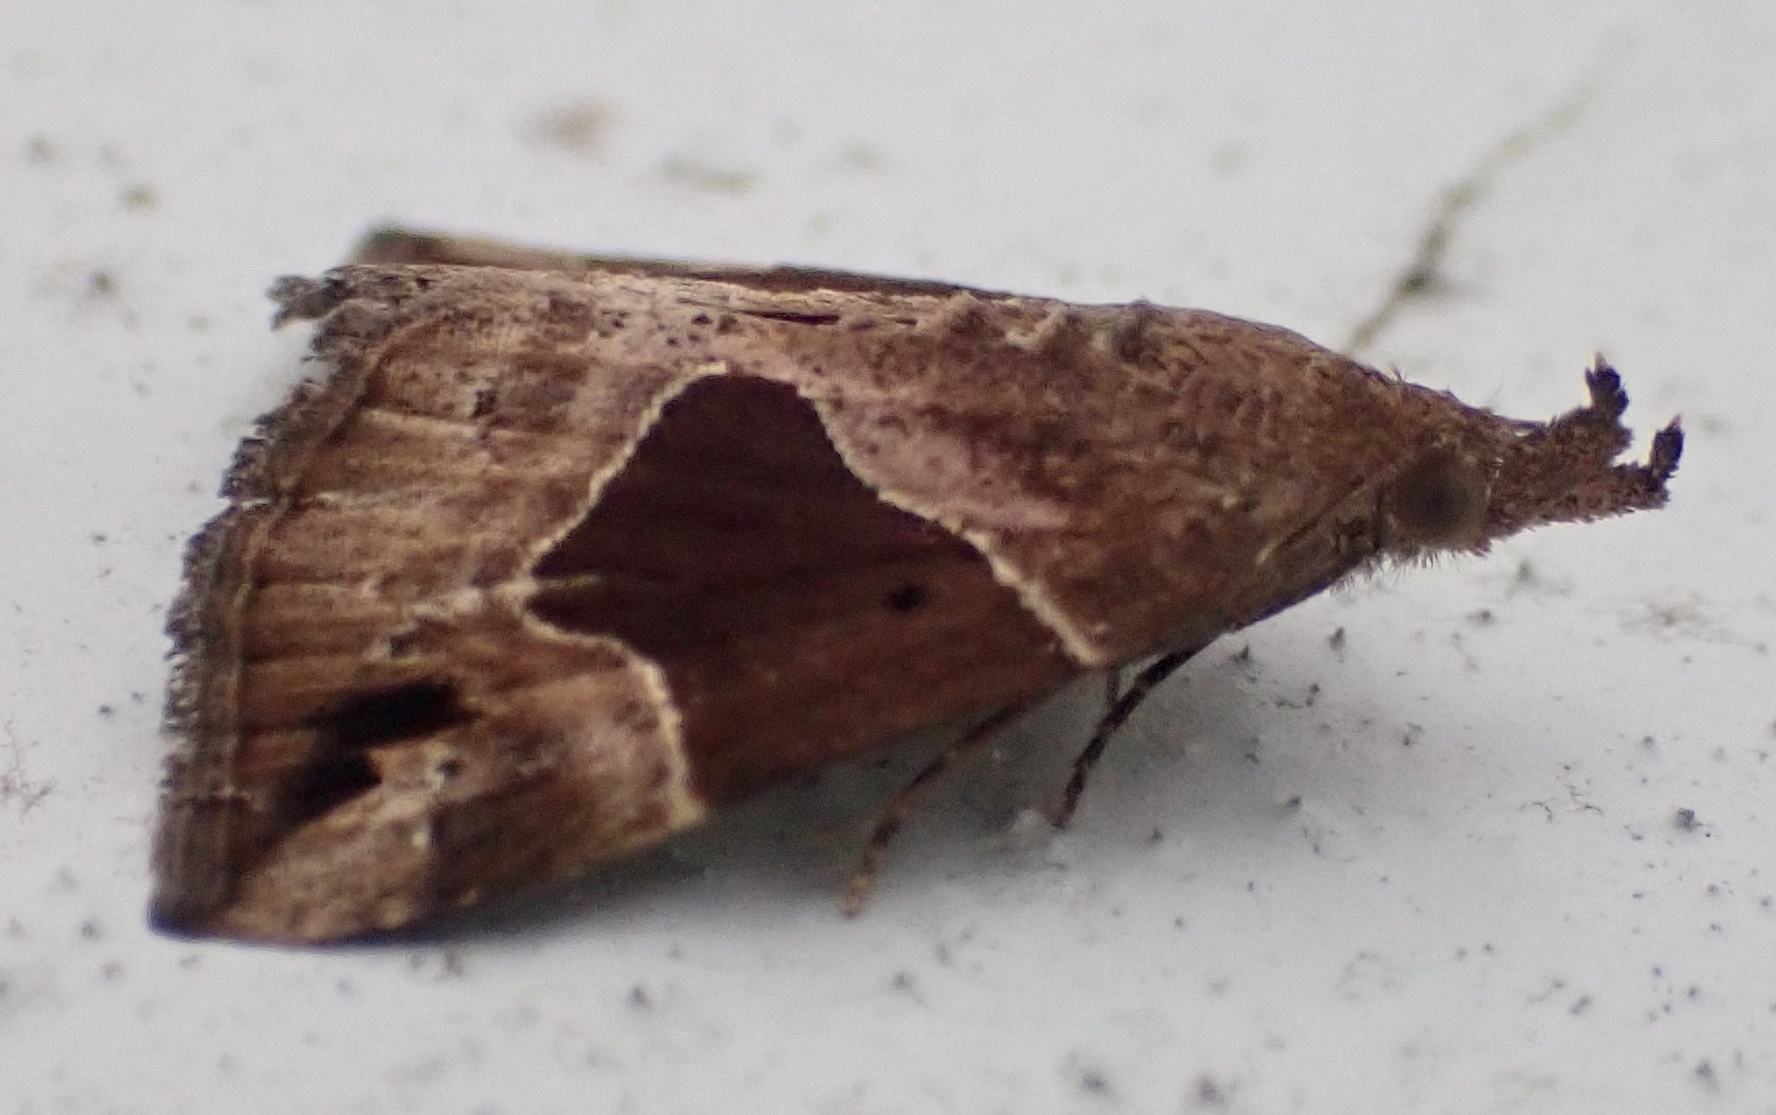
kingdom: Animalia
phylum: Arthropoda
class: Insecta
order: Lepidoptera
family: Erebidae
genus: Hypena
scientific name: Hypena manalis
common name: Flowing-line bomolocha moth
